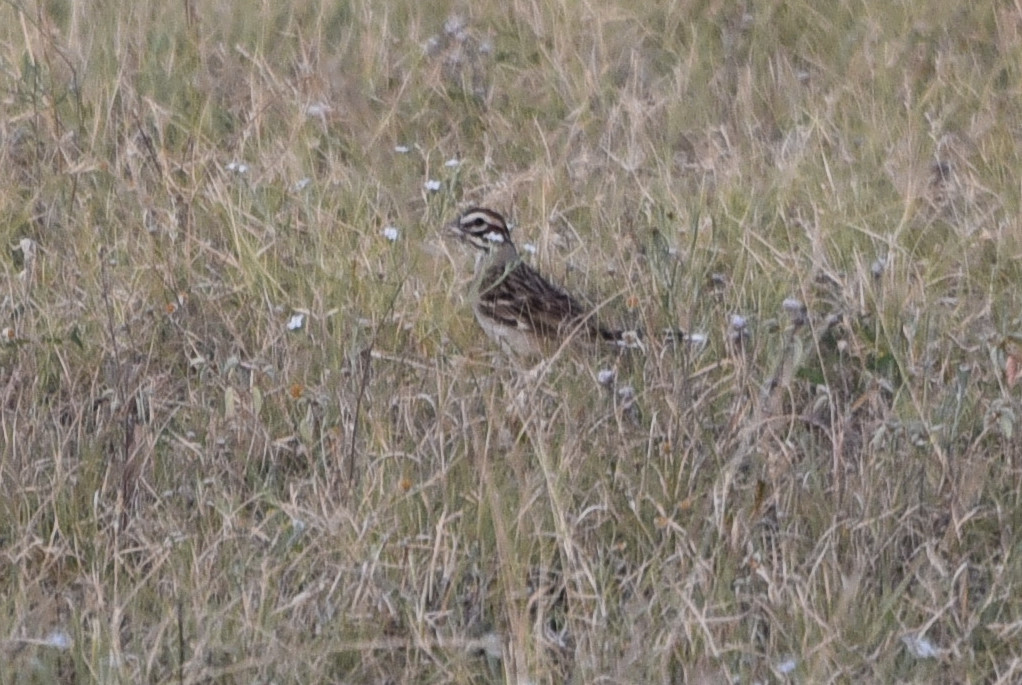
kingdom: Animalia
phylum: Chordata
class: Aves
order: Passeriformes
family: Passerellidae
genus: Chondestes
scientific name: Chondestes grammacus
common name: Lark sparrow
